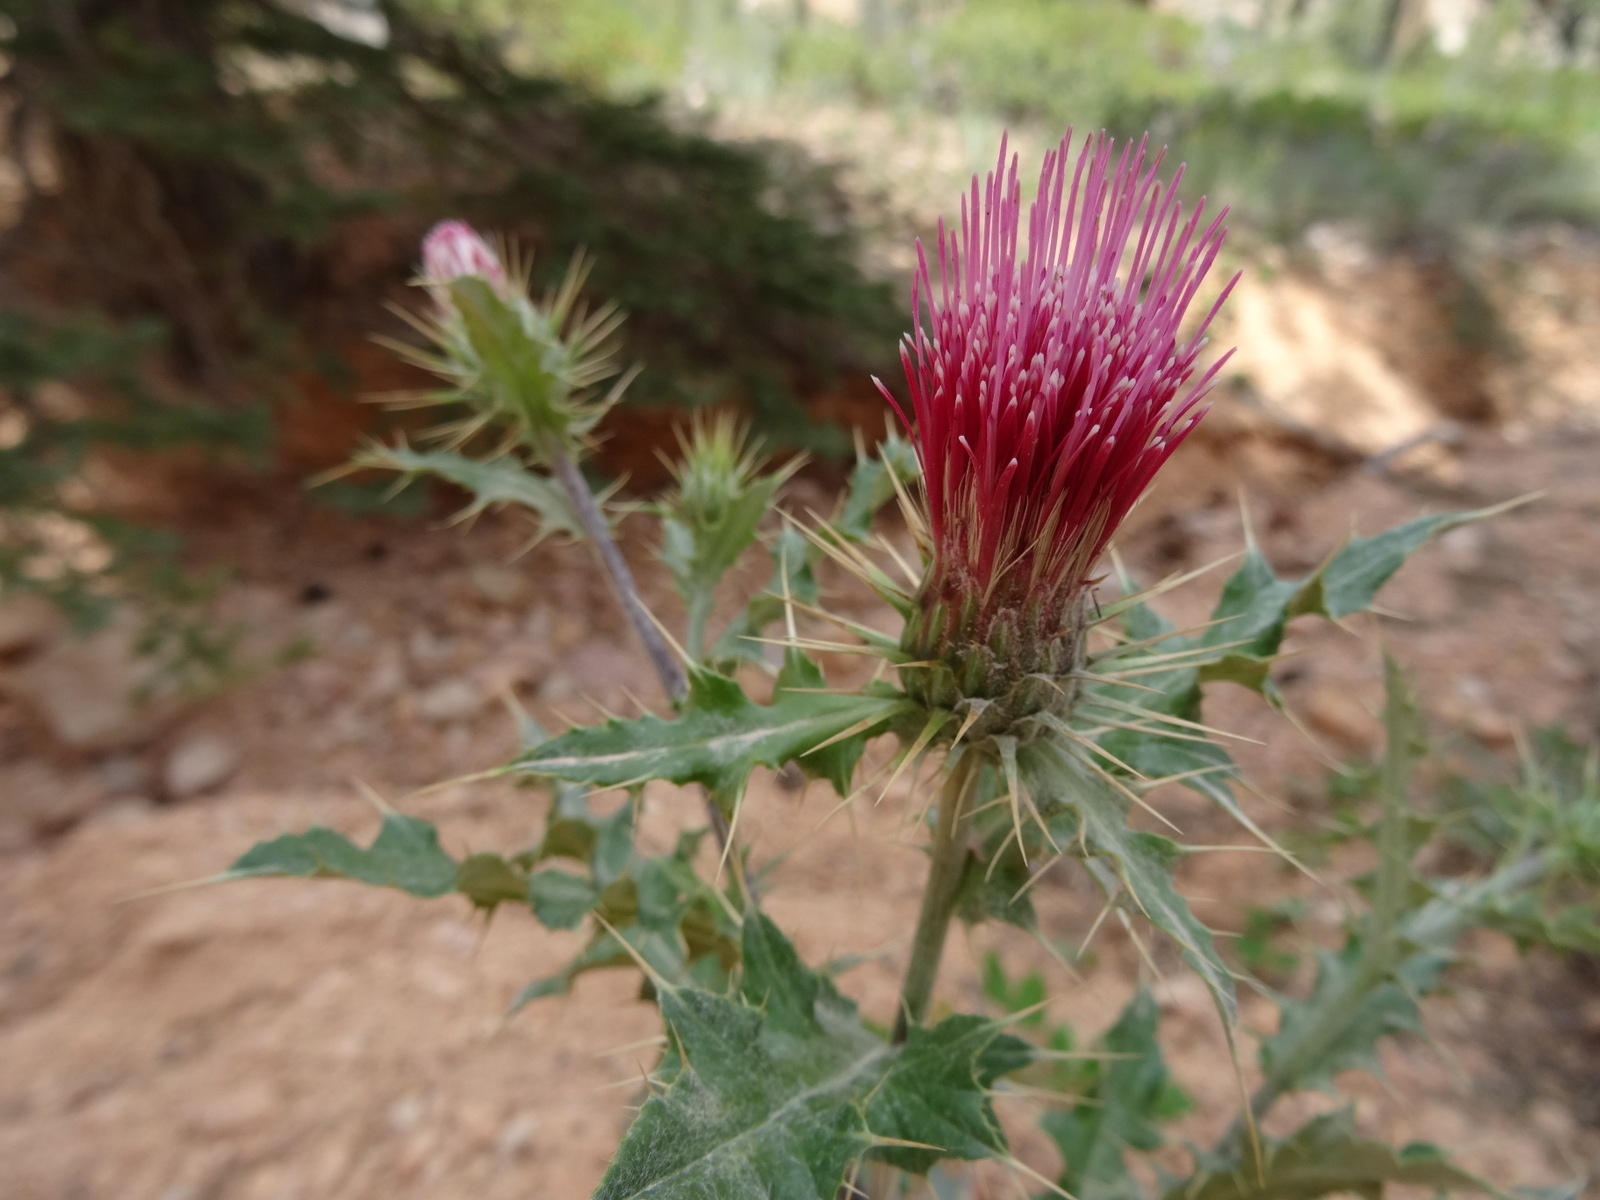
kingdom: Plantae
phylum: Tracheophyta
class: Magnoliopsida
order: Asterales
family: Asteraceae
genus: Cirsium
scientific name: Cirsium arizonicum
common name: Arizona thistle
